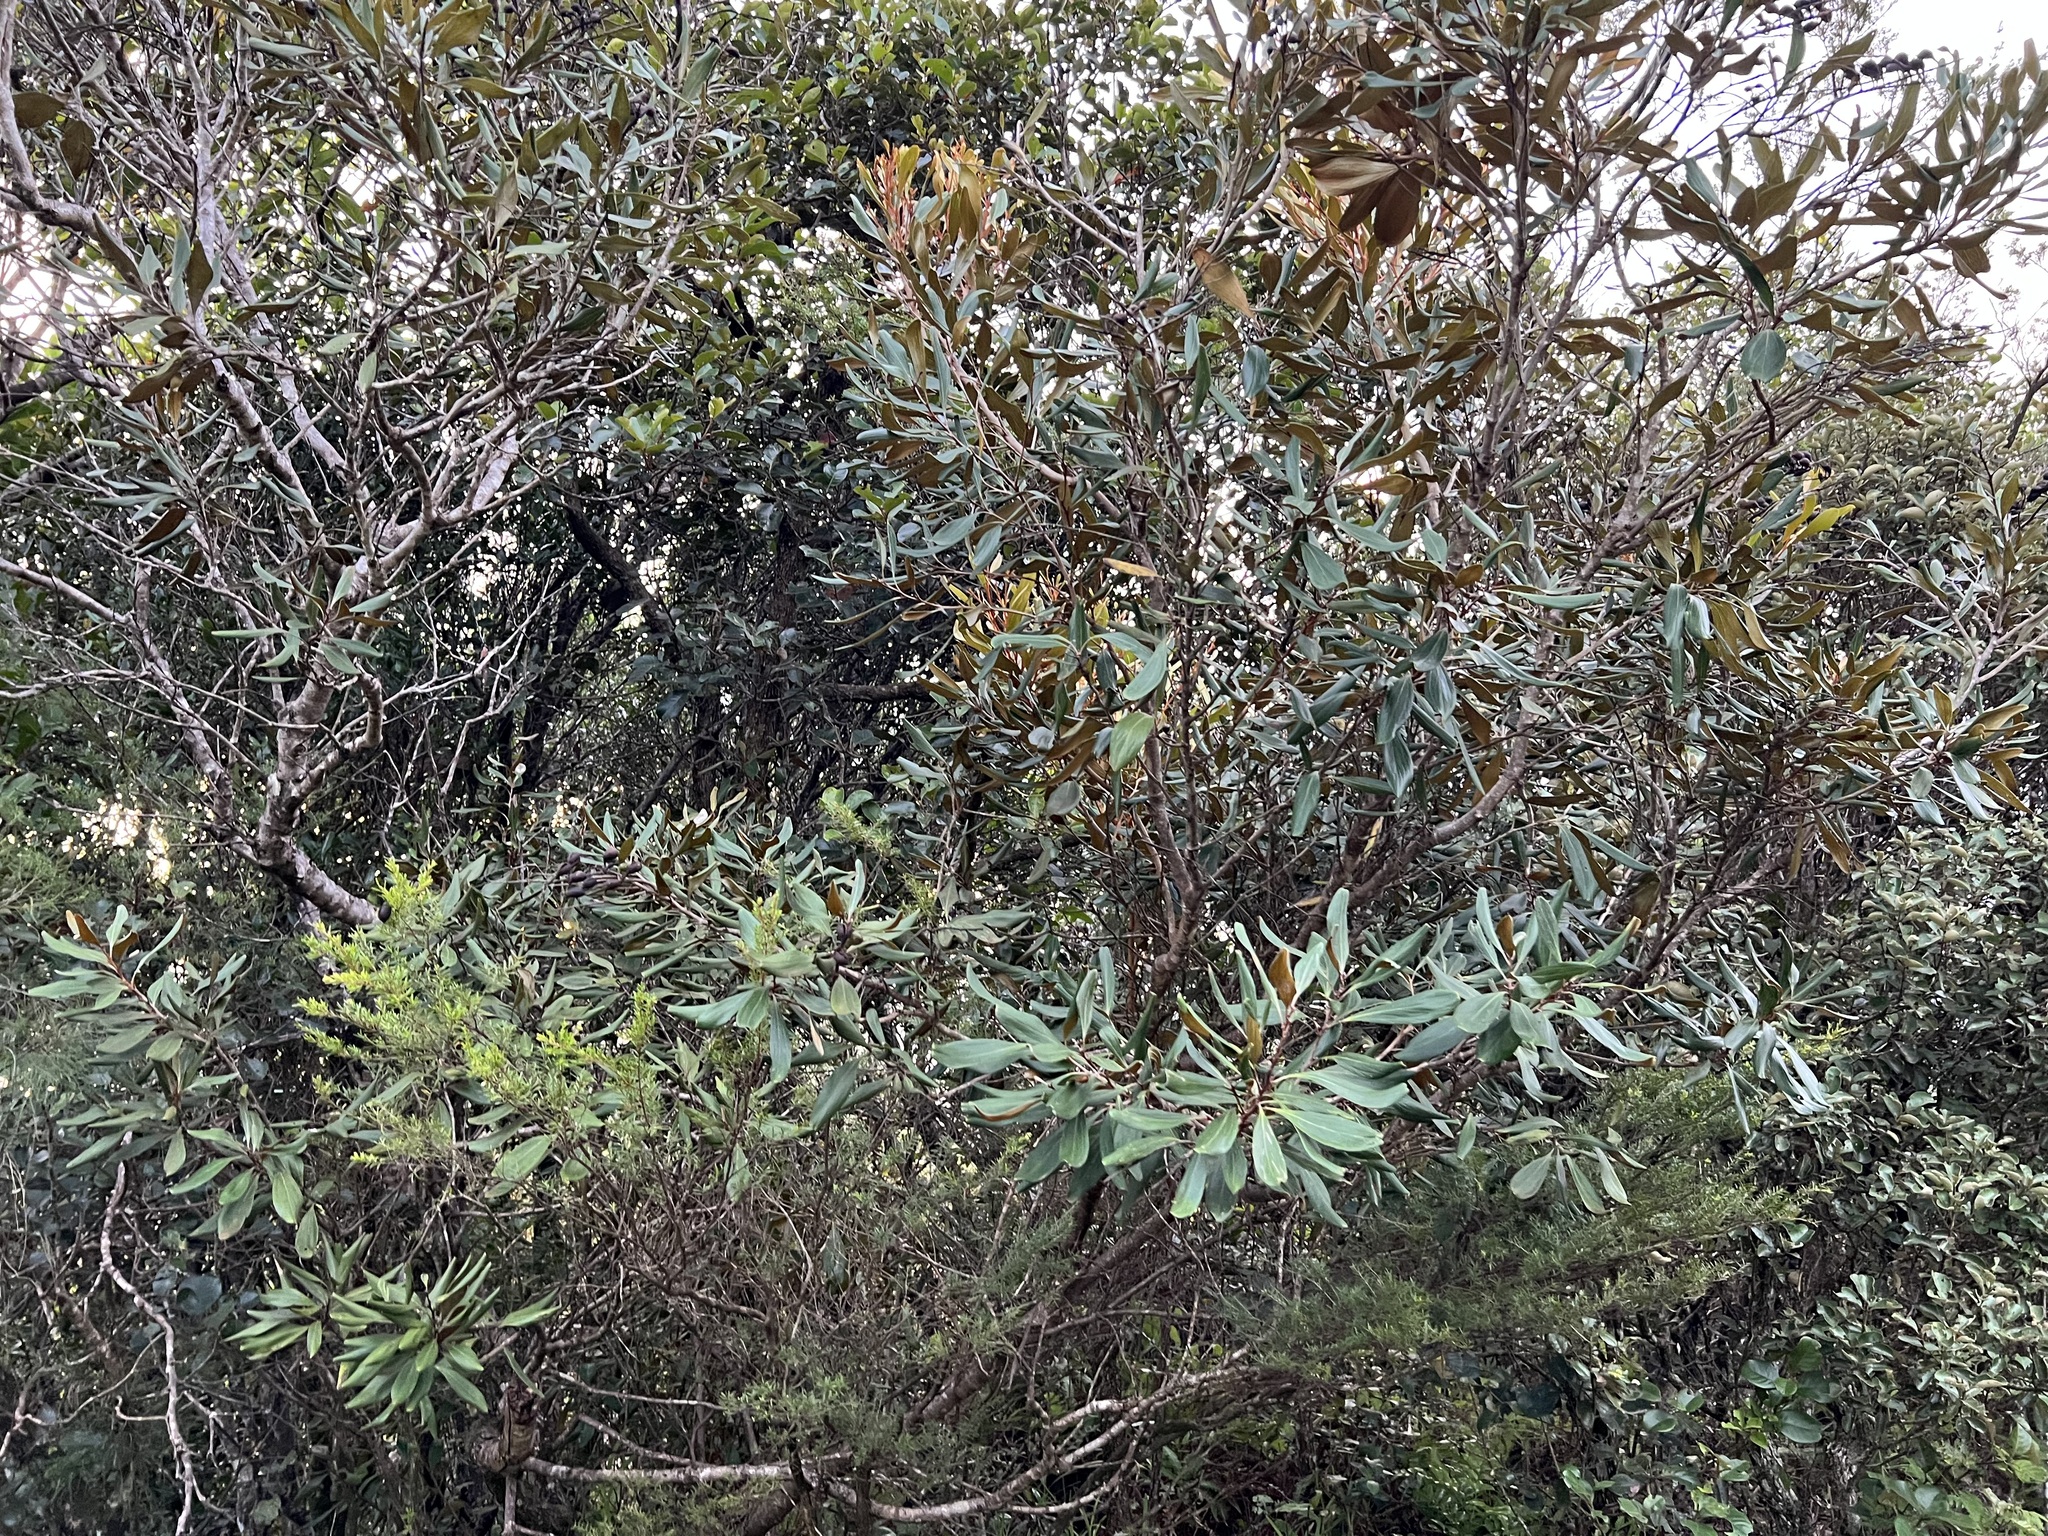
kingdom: Plantae
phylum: Tracheophyta
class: Magnoliopsida
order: Proteales
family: Proteaceae
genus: Grevillea
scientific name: Grevillea exul
